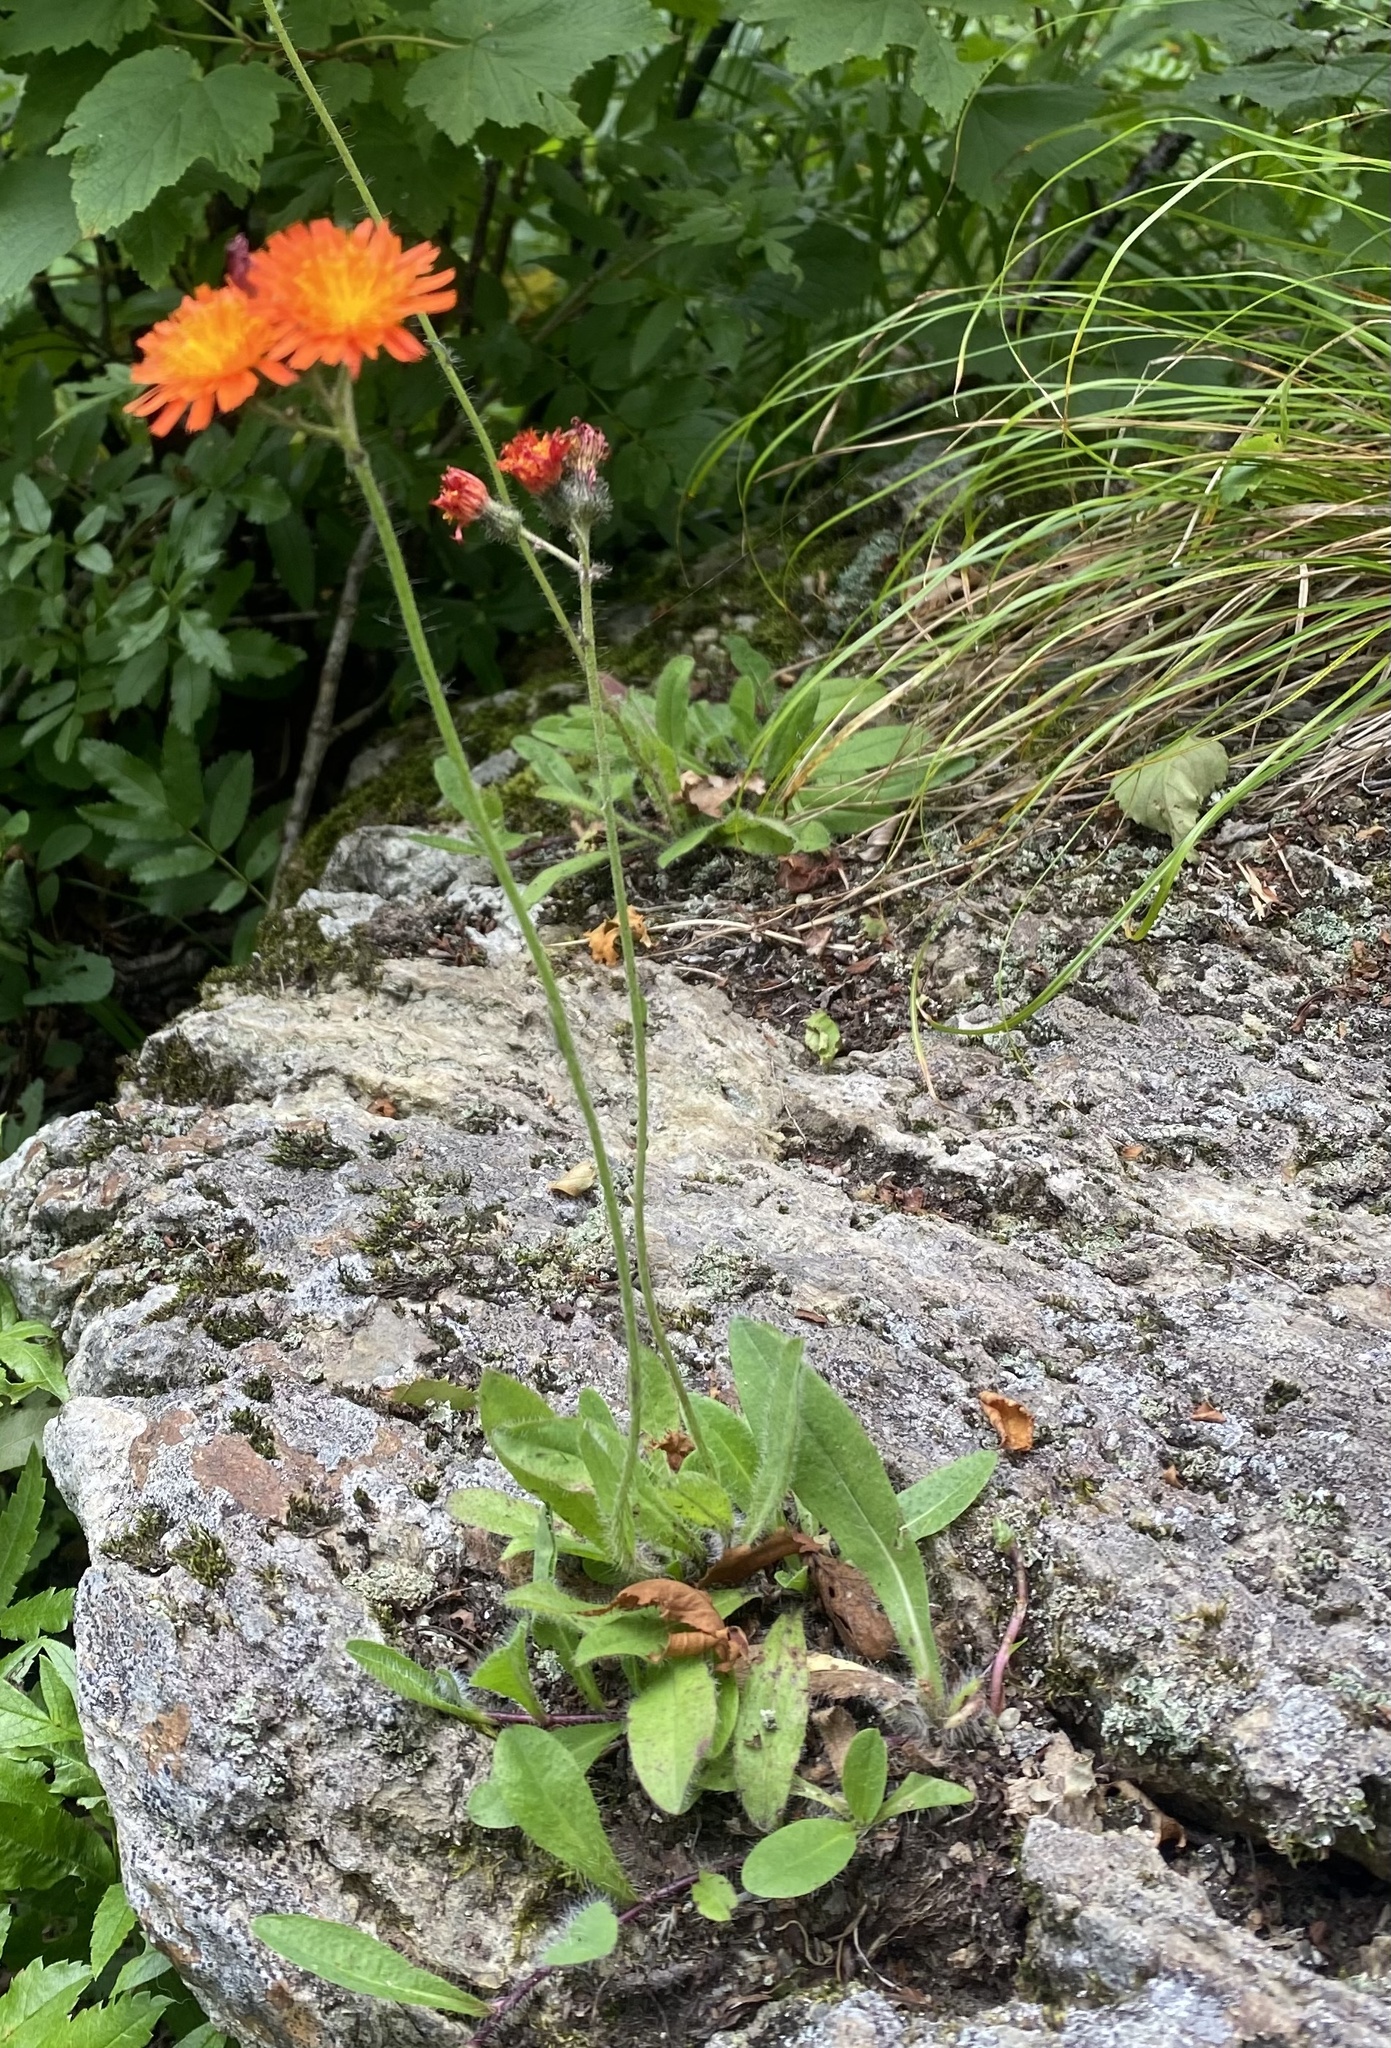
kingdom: Plantae
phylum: Tracheophyta
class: Magnoliopsida
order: Asterales
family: Asteraceae
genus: Pilosella
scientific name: Pilosella aurantiaca
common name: Fox-and-cubs
